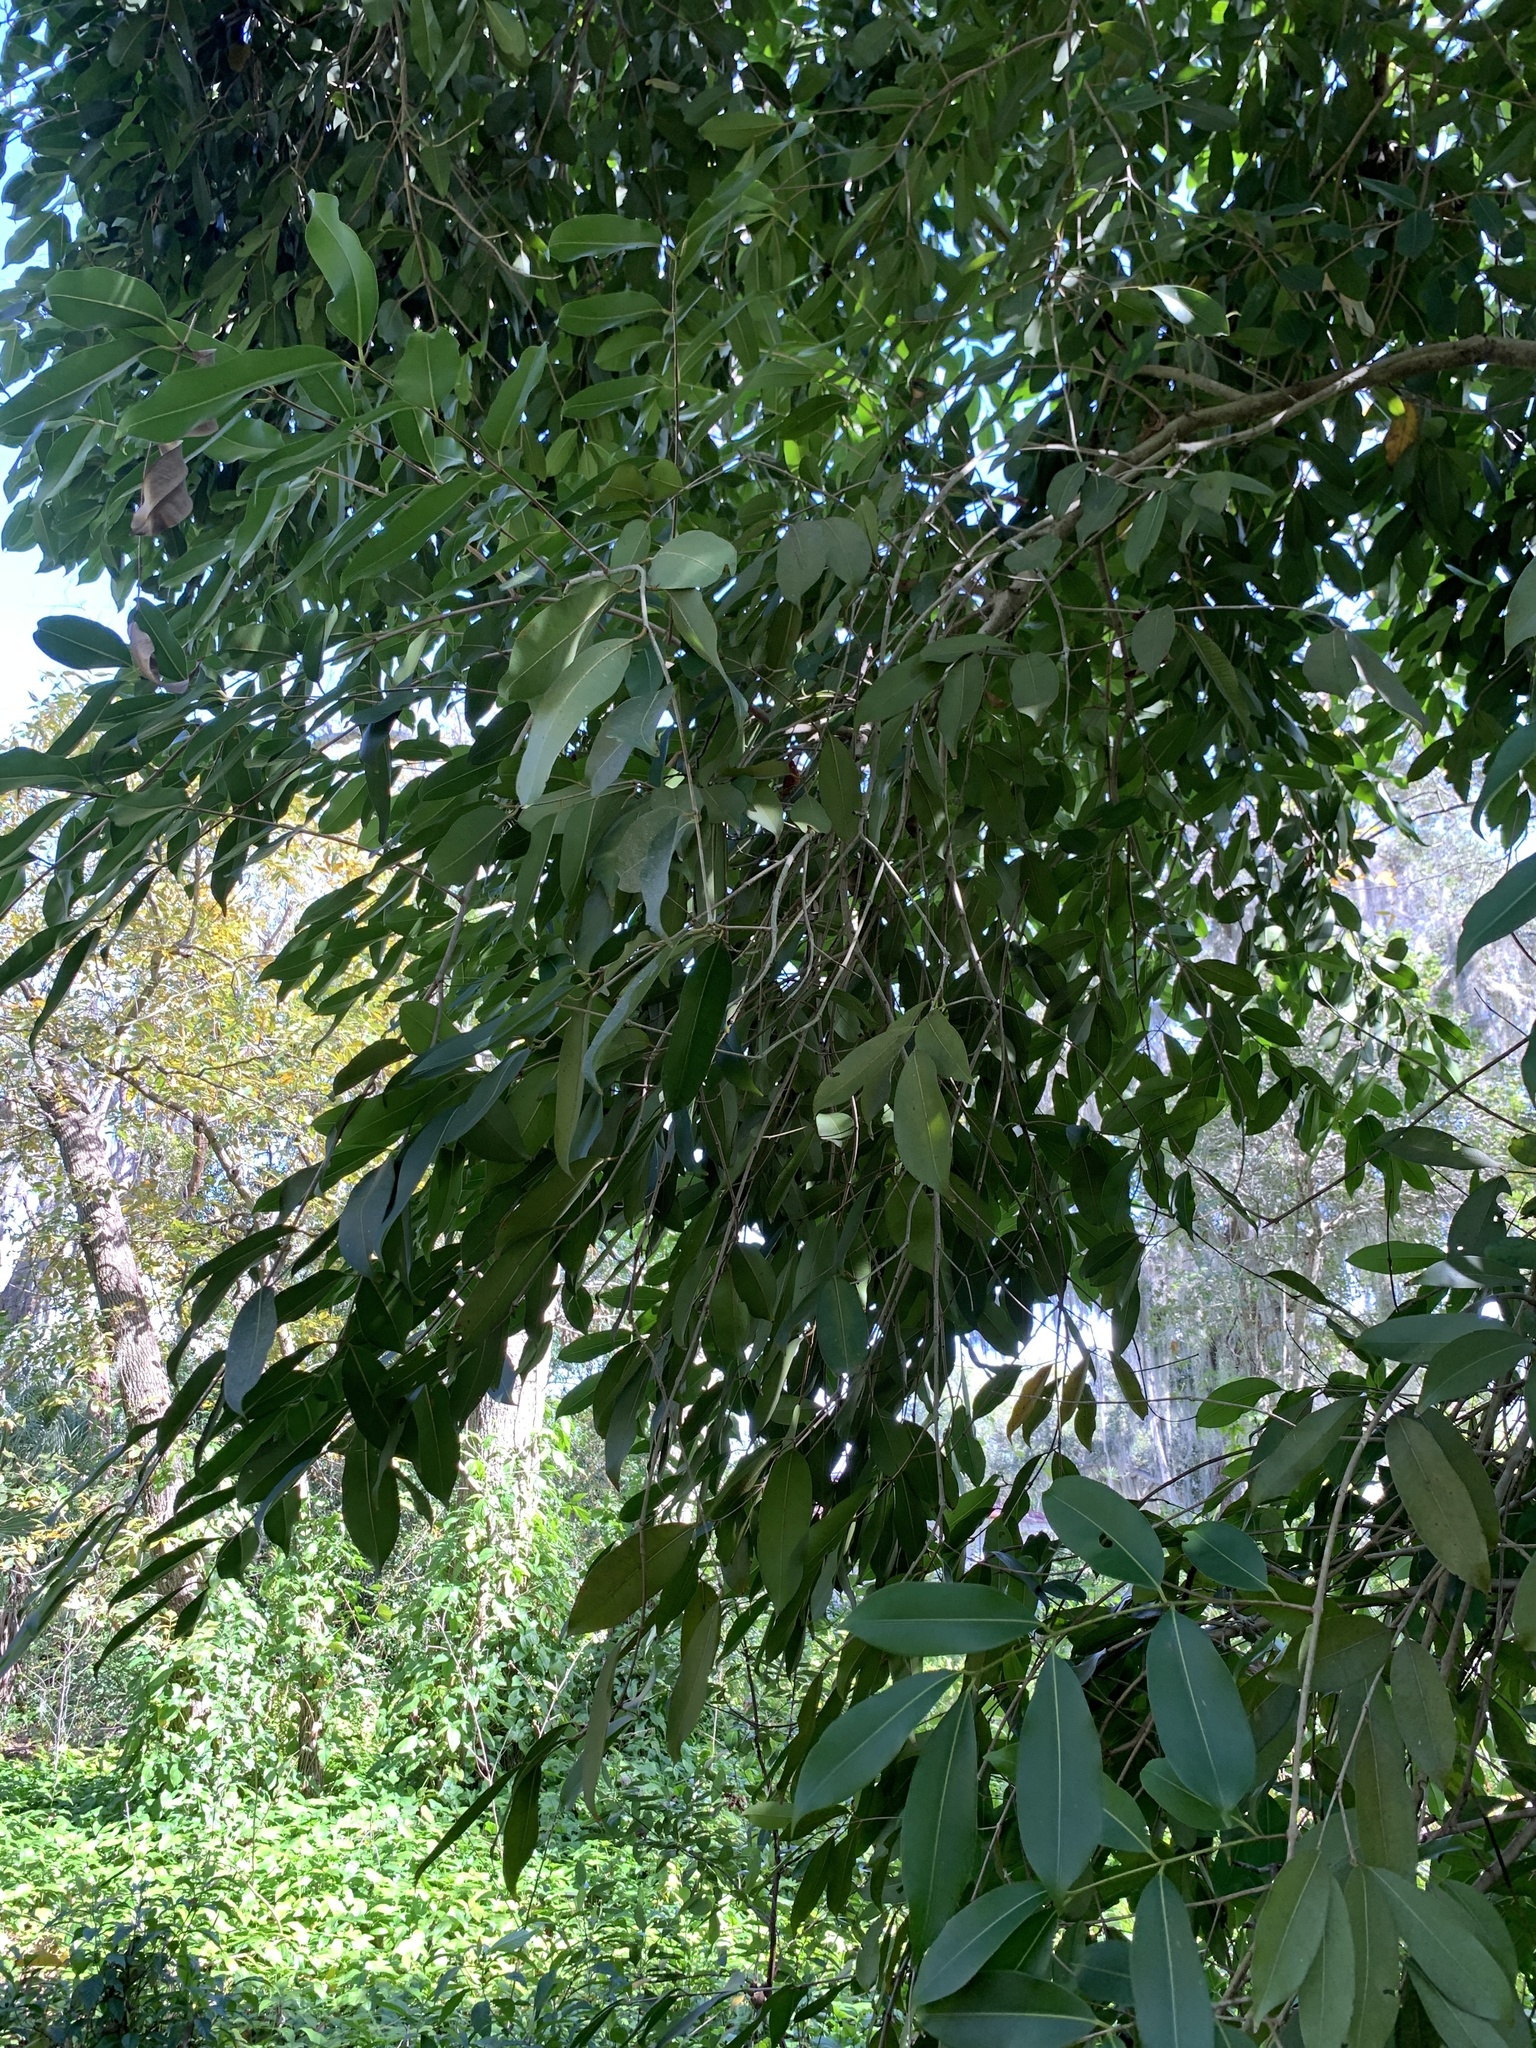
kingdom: Plantae
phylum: Tracheophyta
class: Magnoliopsida
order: Myrtales
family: Myrtaceae
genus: Syzygium
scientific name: Syzygium cumini
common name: Java plum
